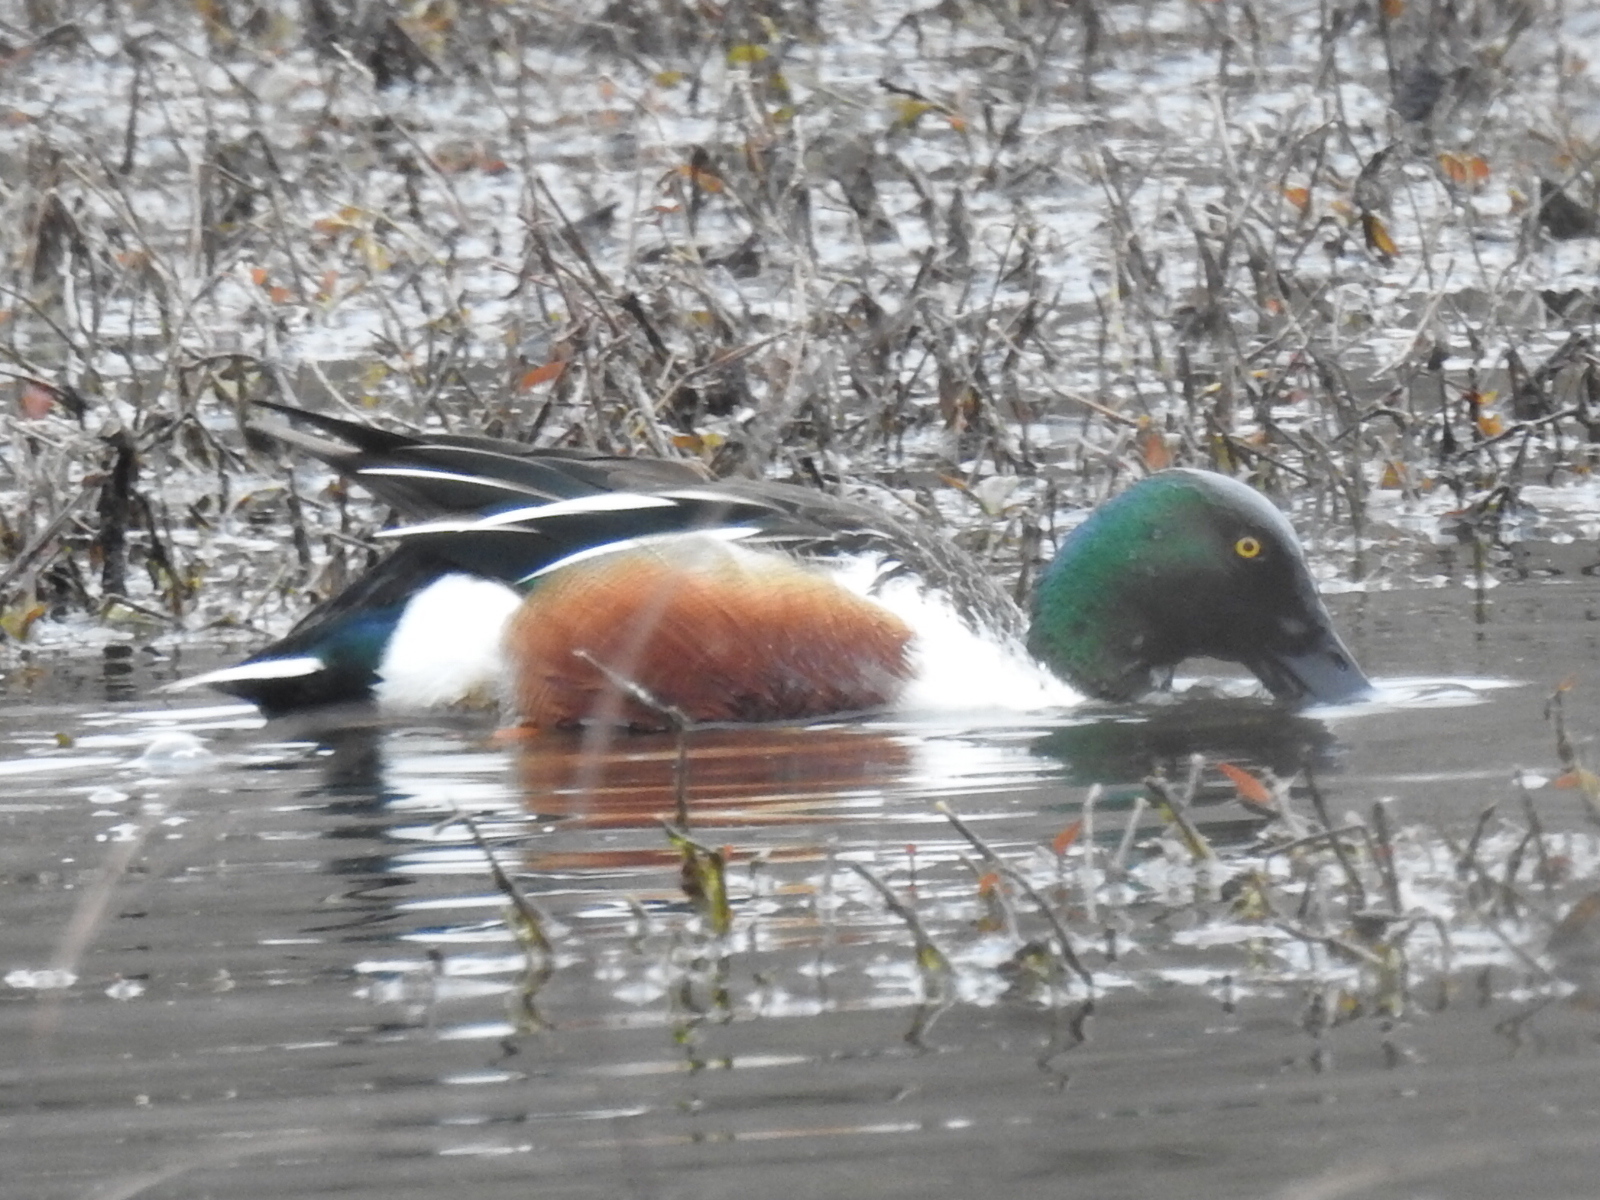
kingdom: Animalia
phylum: Chordata
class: Aves
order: Anseriformes
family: Anatidae
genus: Spatula
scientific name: Spatula clypeata
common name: Northern shoveler
